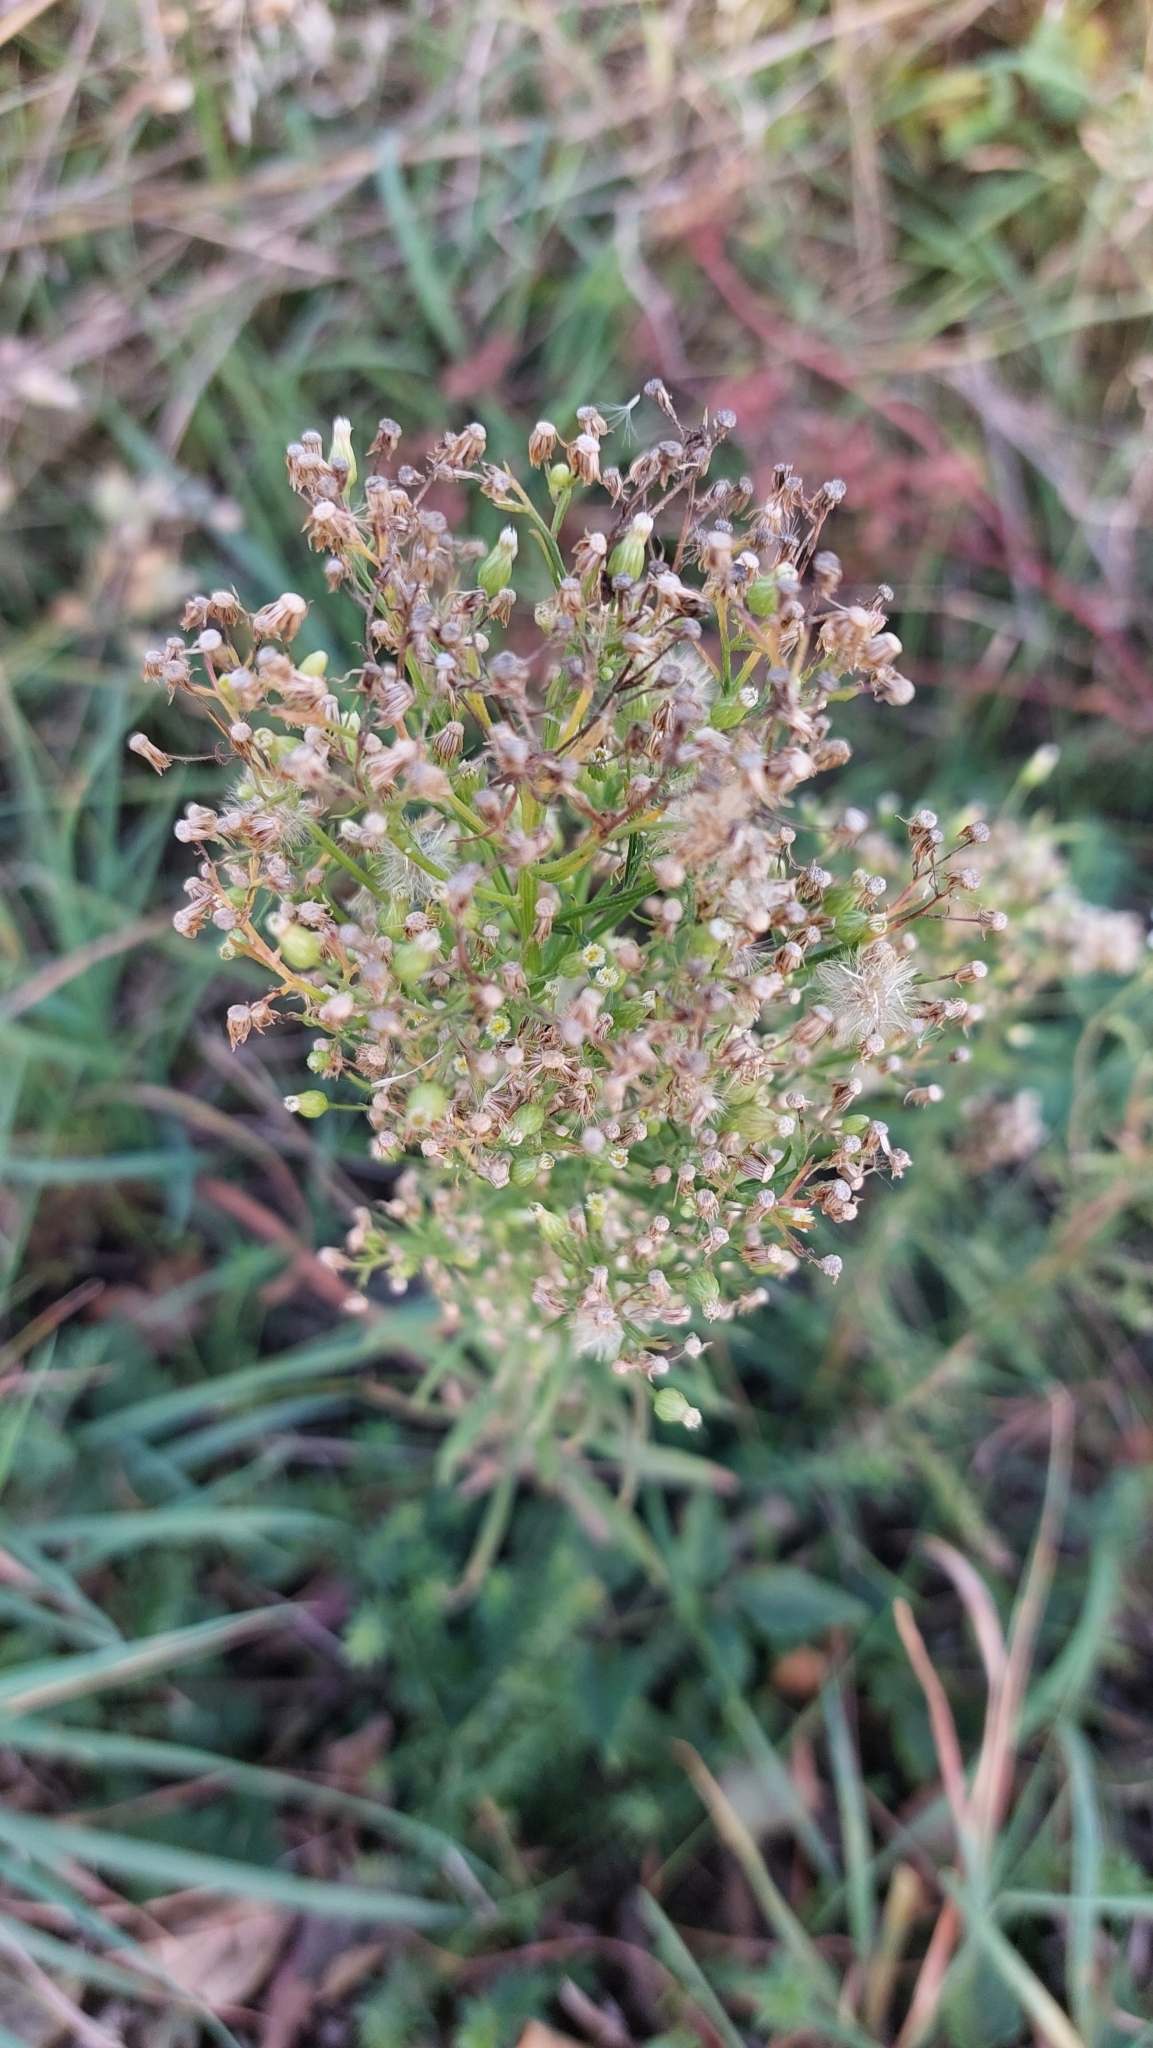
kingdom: Plantae
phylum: Tracheophyta
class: Magnoliopsida
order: Asterales
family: Asteraceae
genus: Erigeron
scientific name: Erigeron canadensis
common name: Canadian fleabane
